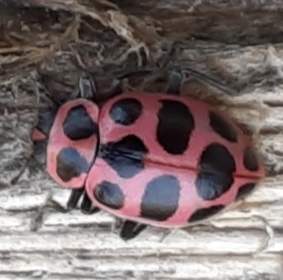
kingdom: Animalia
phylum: Arthropoda
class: Insecta
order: Coleoptera
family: Coccinellidae
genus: Coleomegilla
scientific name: Coleomegilla maculata
